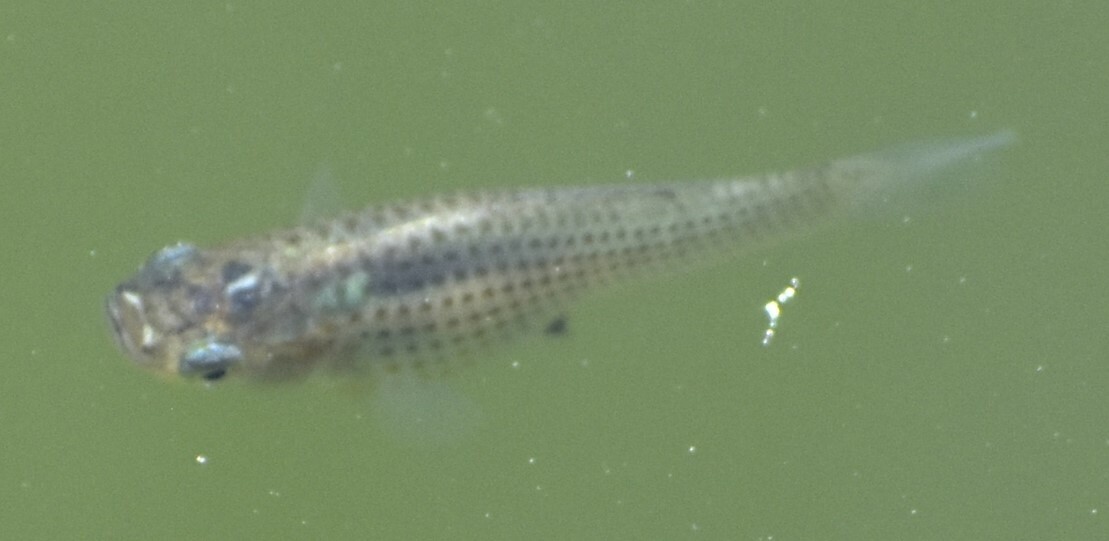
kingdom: Animalia
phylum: Chordata
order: Cyprinodontiformes
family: Poeciliidae
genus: Poecilia
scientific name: Poecilia latipinna
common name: Sailfin molly
